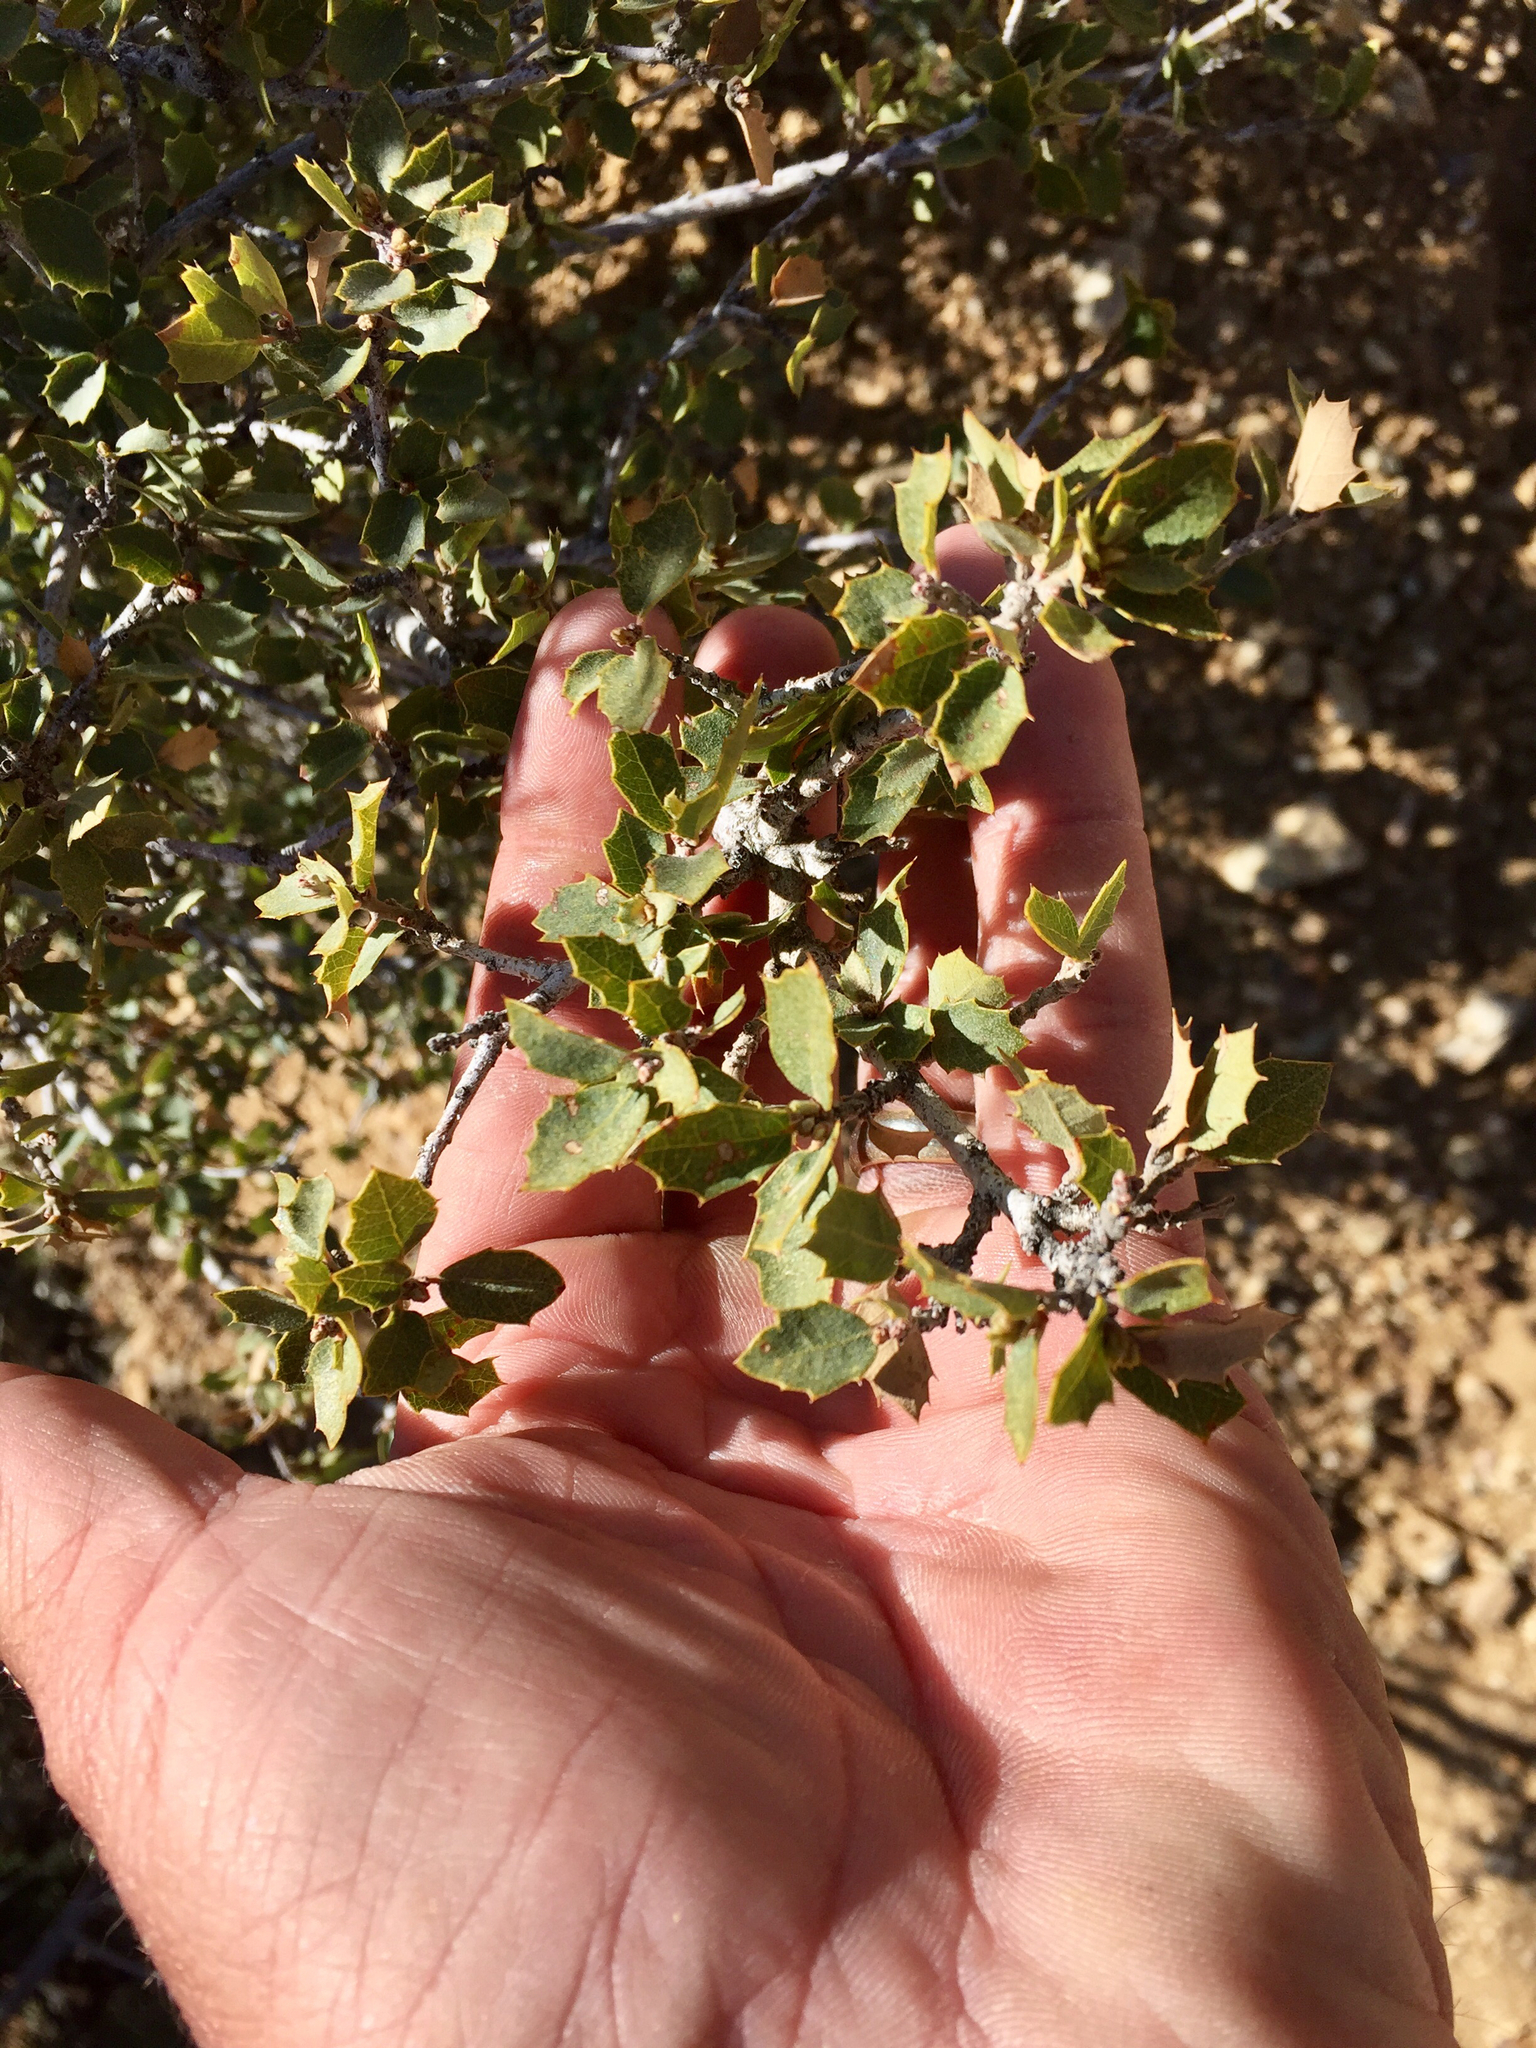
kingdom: Plantae
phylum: Tracheophyta
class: Magnoliopsida
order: Fagales
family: Fagaceae
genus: Quercus
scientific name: Quercus turbinella
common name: Sonoran scrub oak
